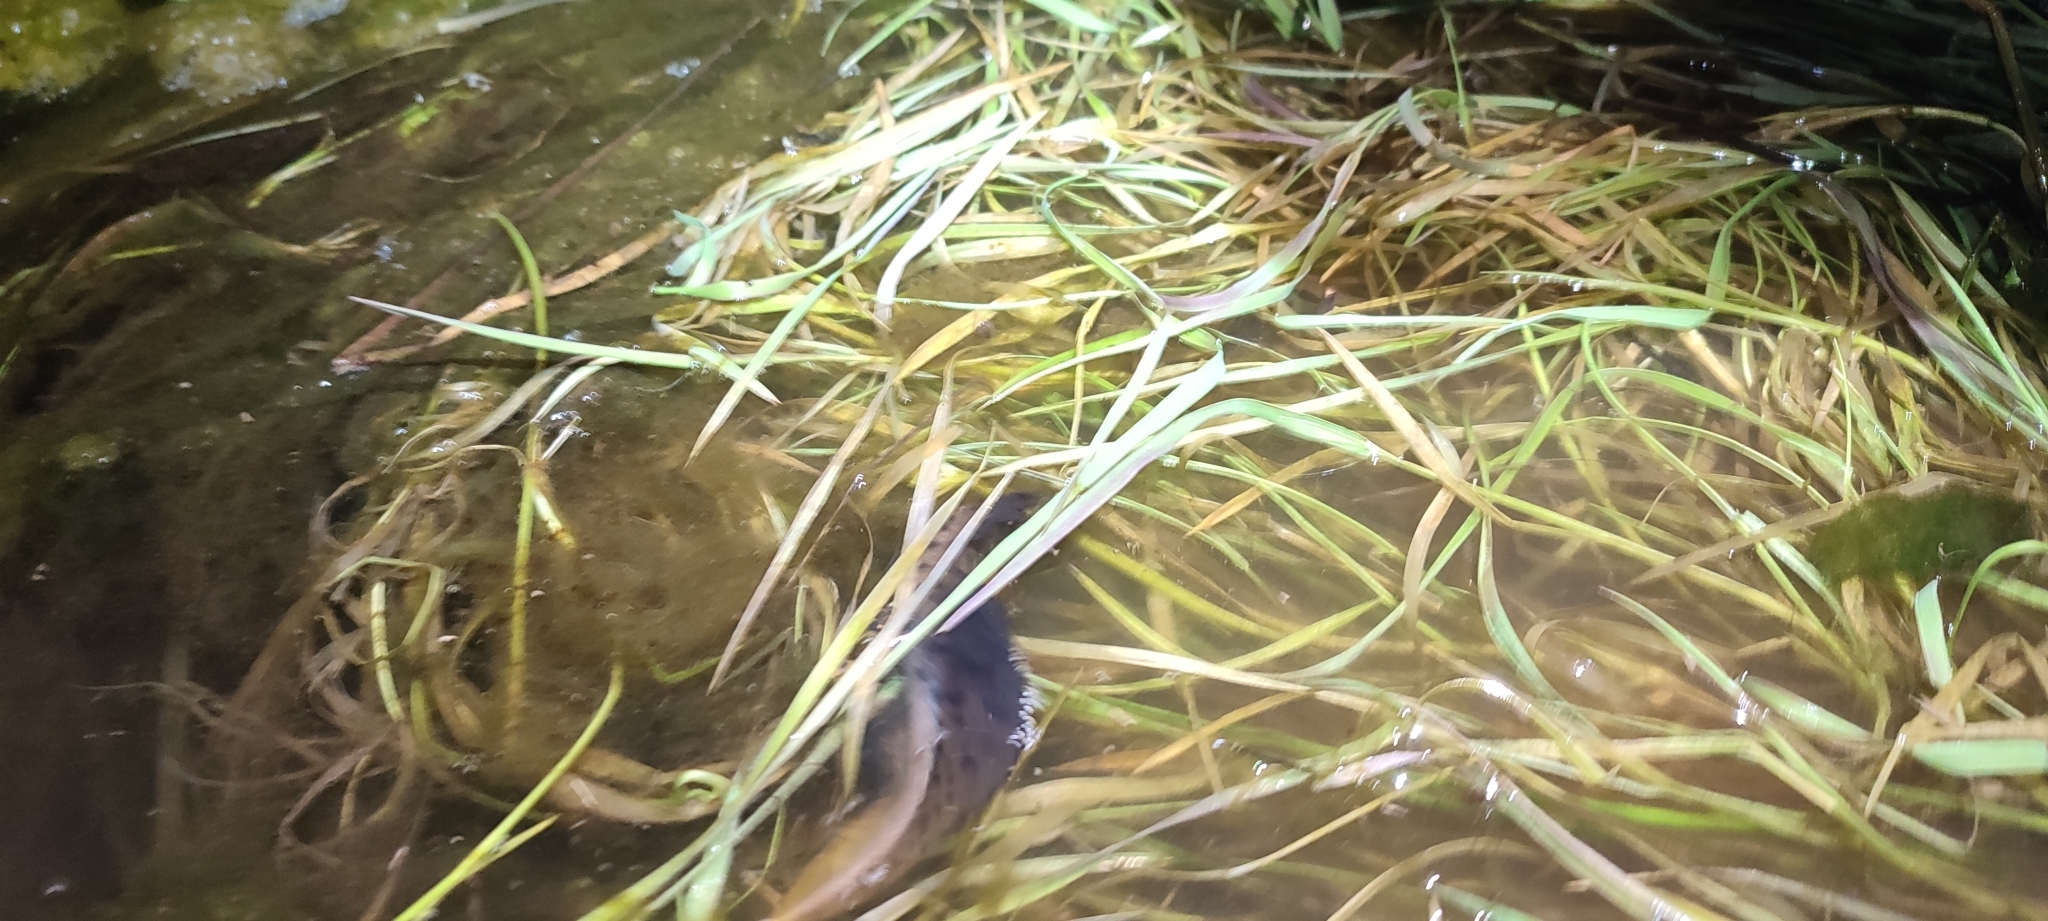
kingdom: Animalia
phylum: Chordata
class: Amphibia
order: Caudata
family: Salamandridae
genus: Triturus
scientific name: Triturus cristatus
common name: Crested newt
